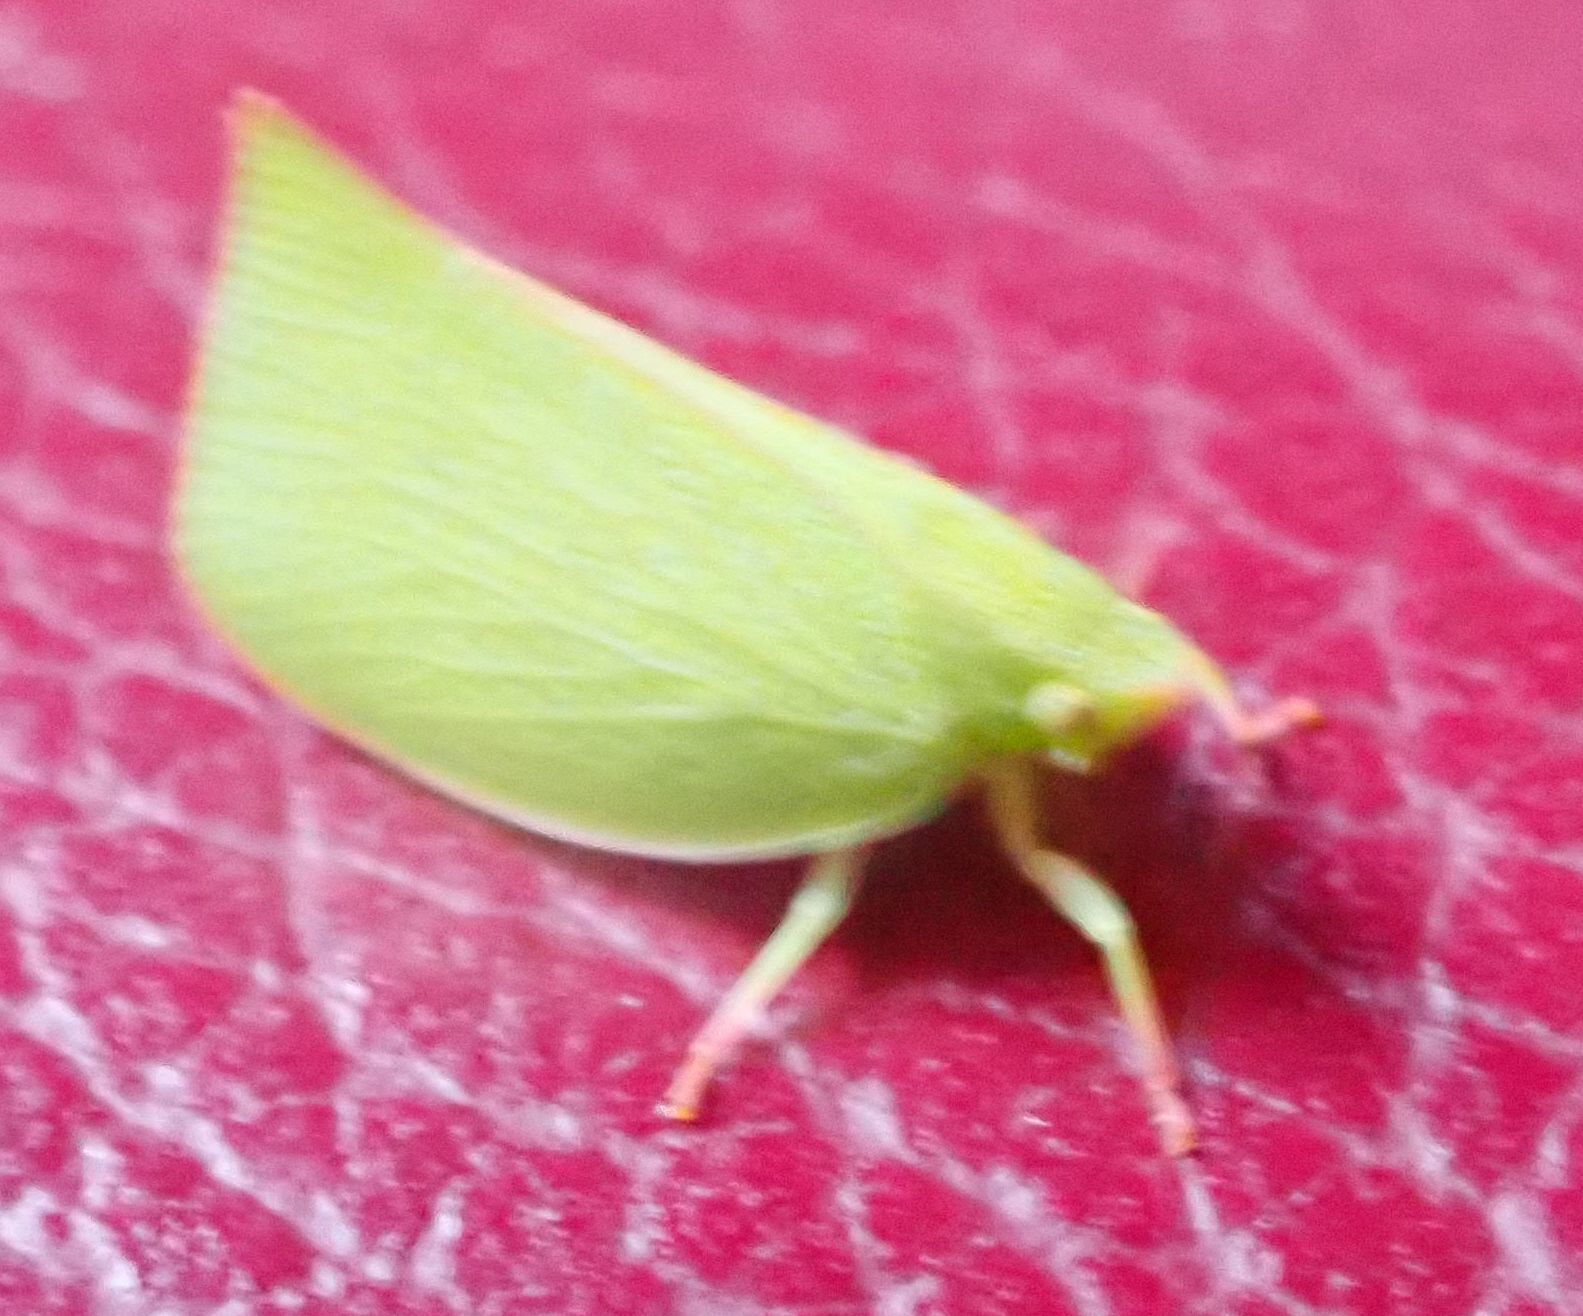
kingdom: Animalia
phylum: Arthropoda
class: Insecta
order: Hemiptera
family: Flatidae
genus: Siphanta
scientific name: Siphanta acuta
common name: Torpedo bug
